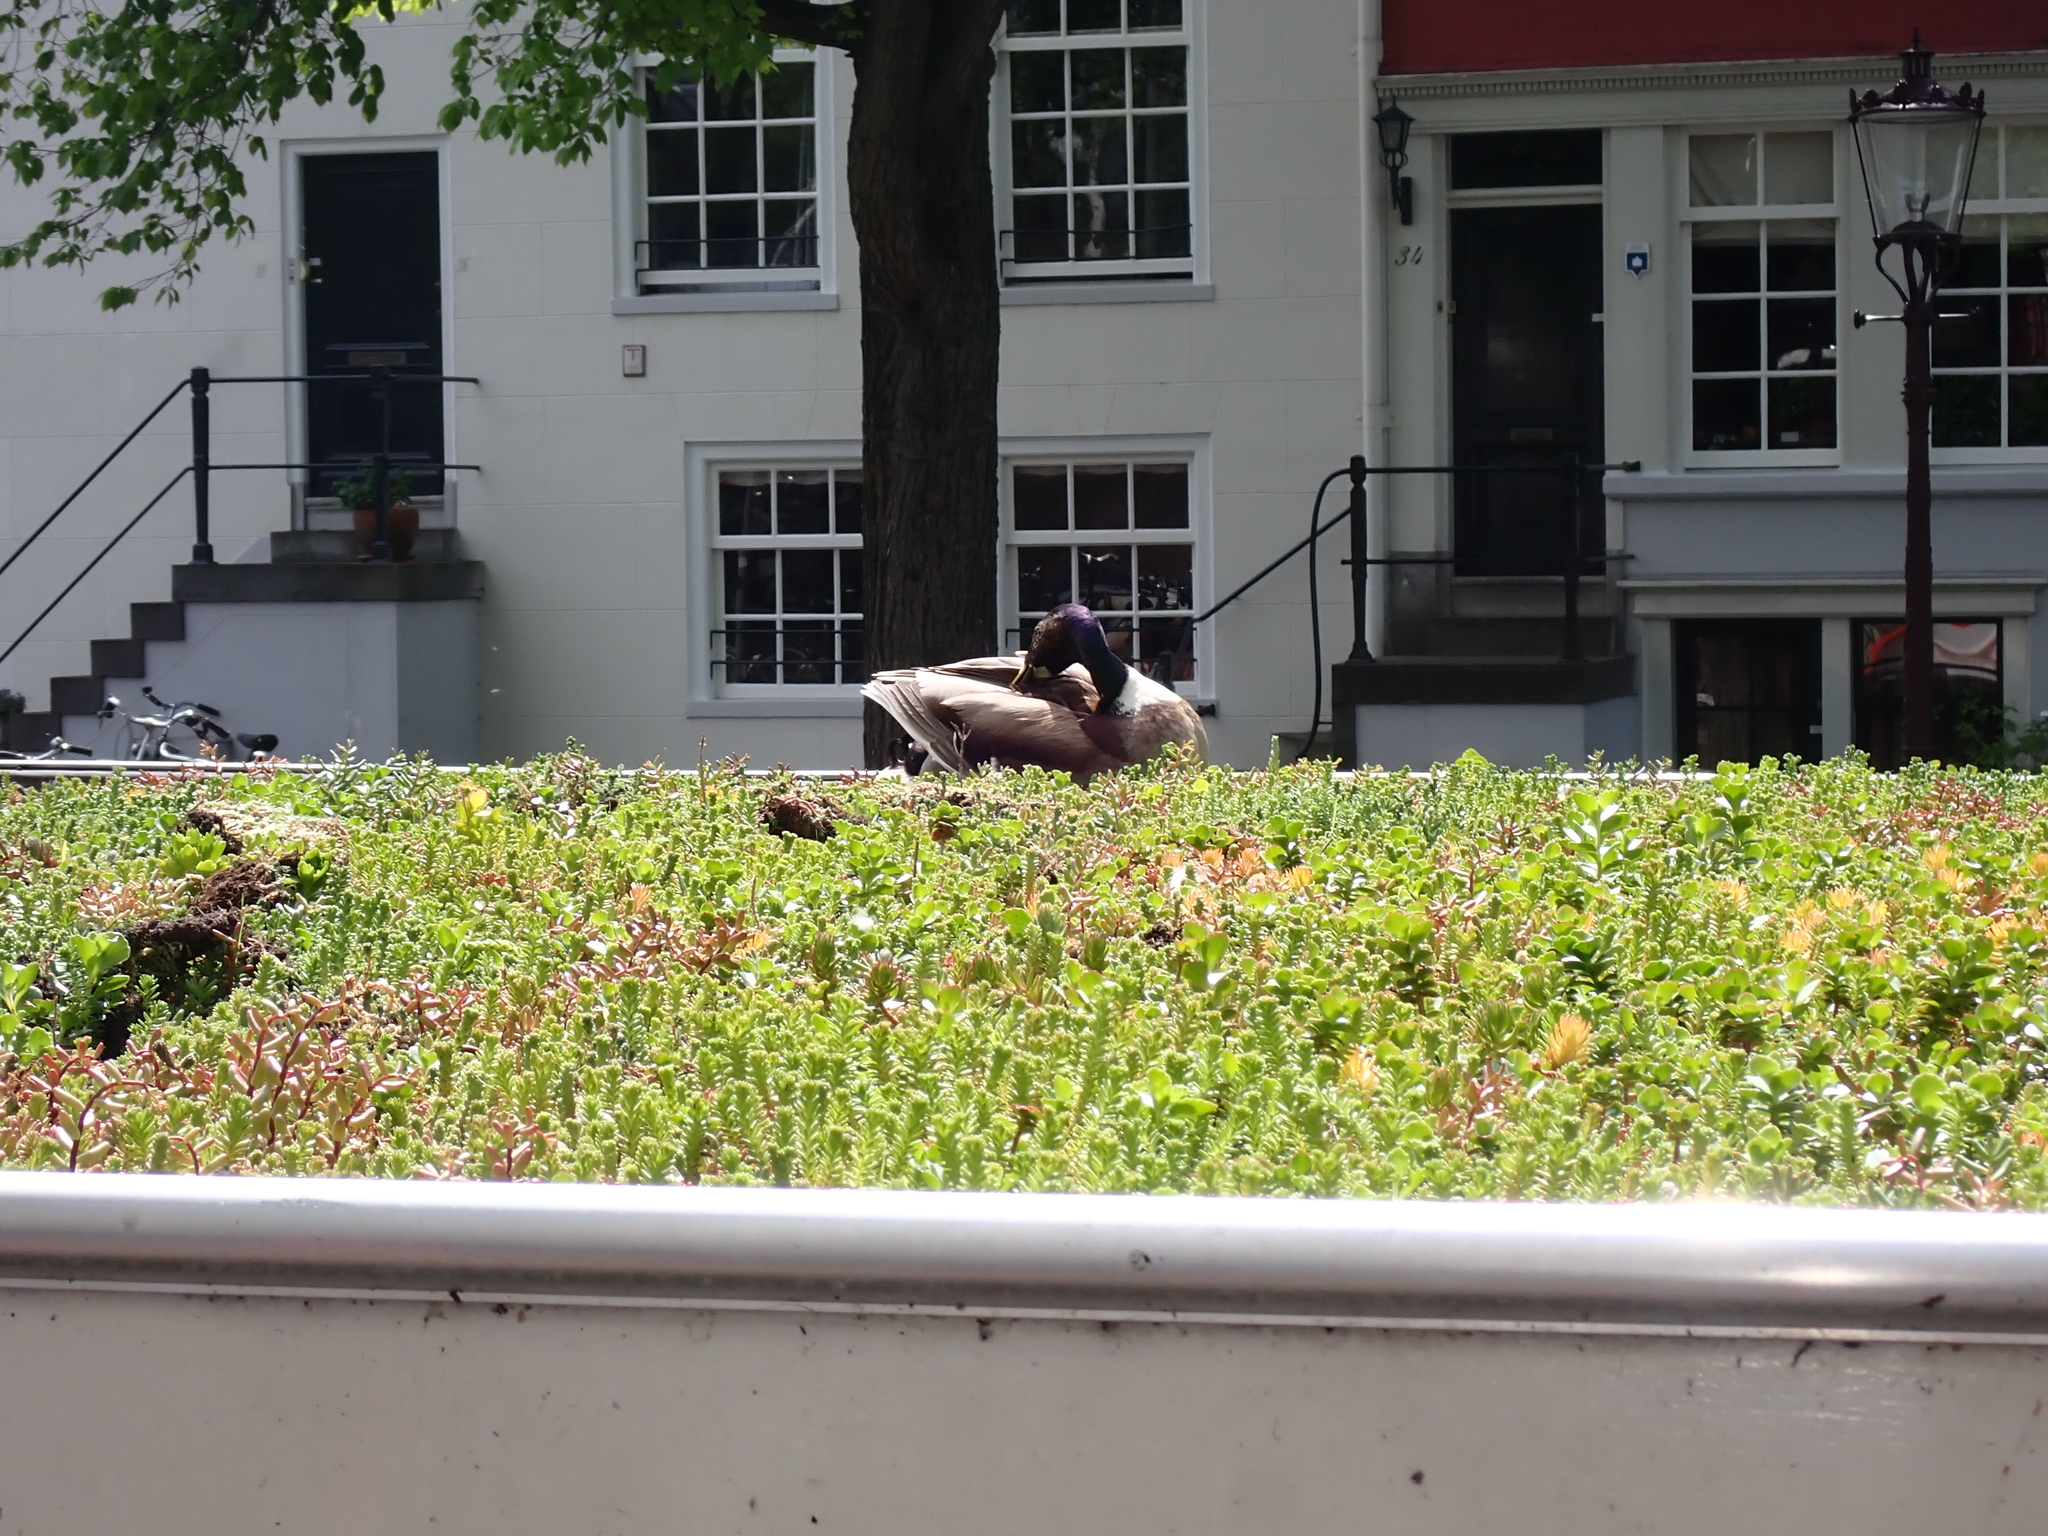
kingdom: Animalia
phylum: Chordata
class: Aves
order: Anseriformes
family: Anatidae
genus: Anas
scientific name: Anas platyrhynchos
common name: Mallard
